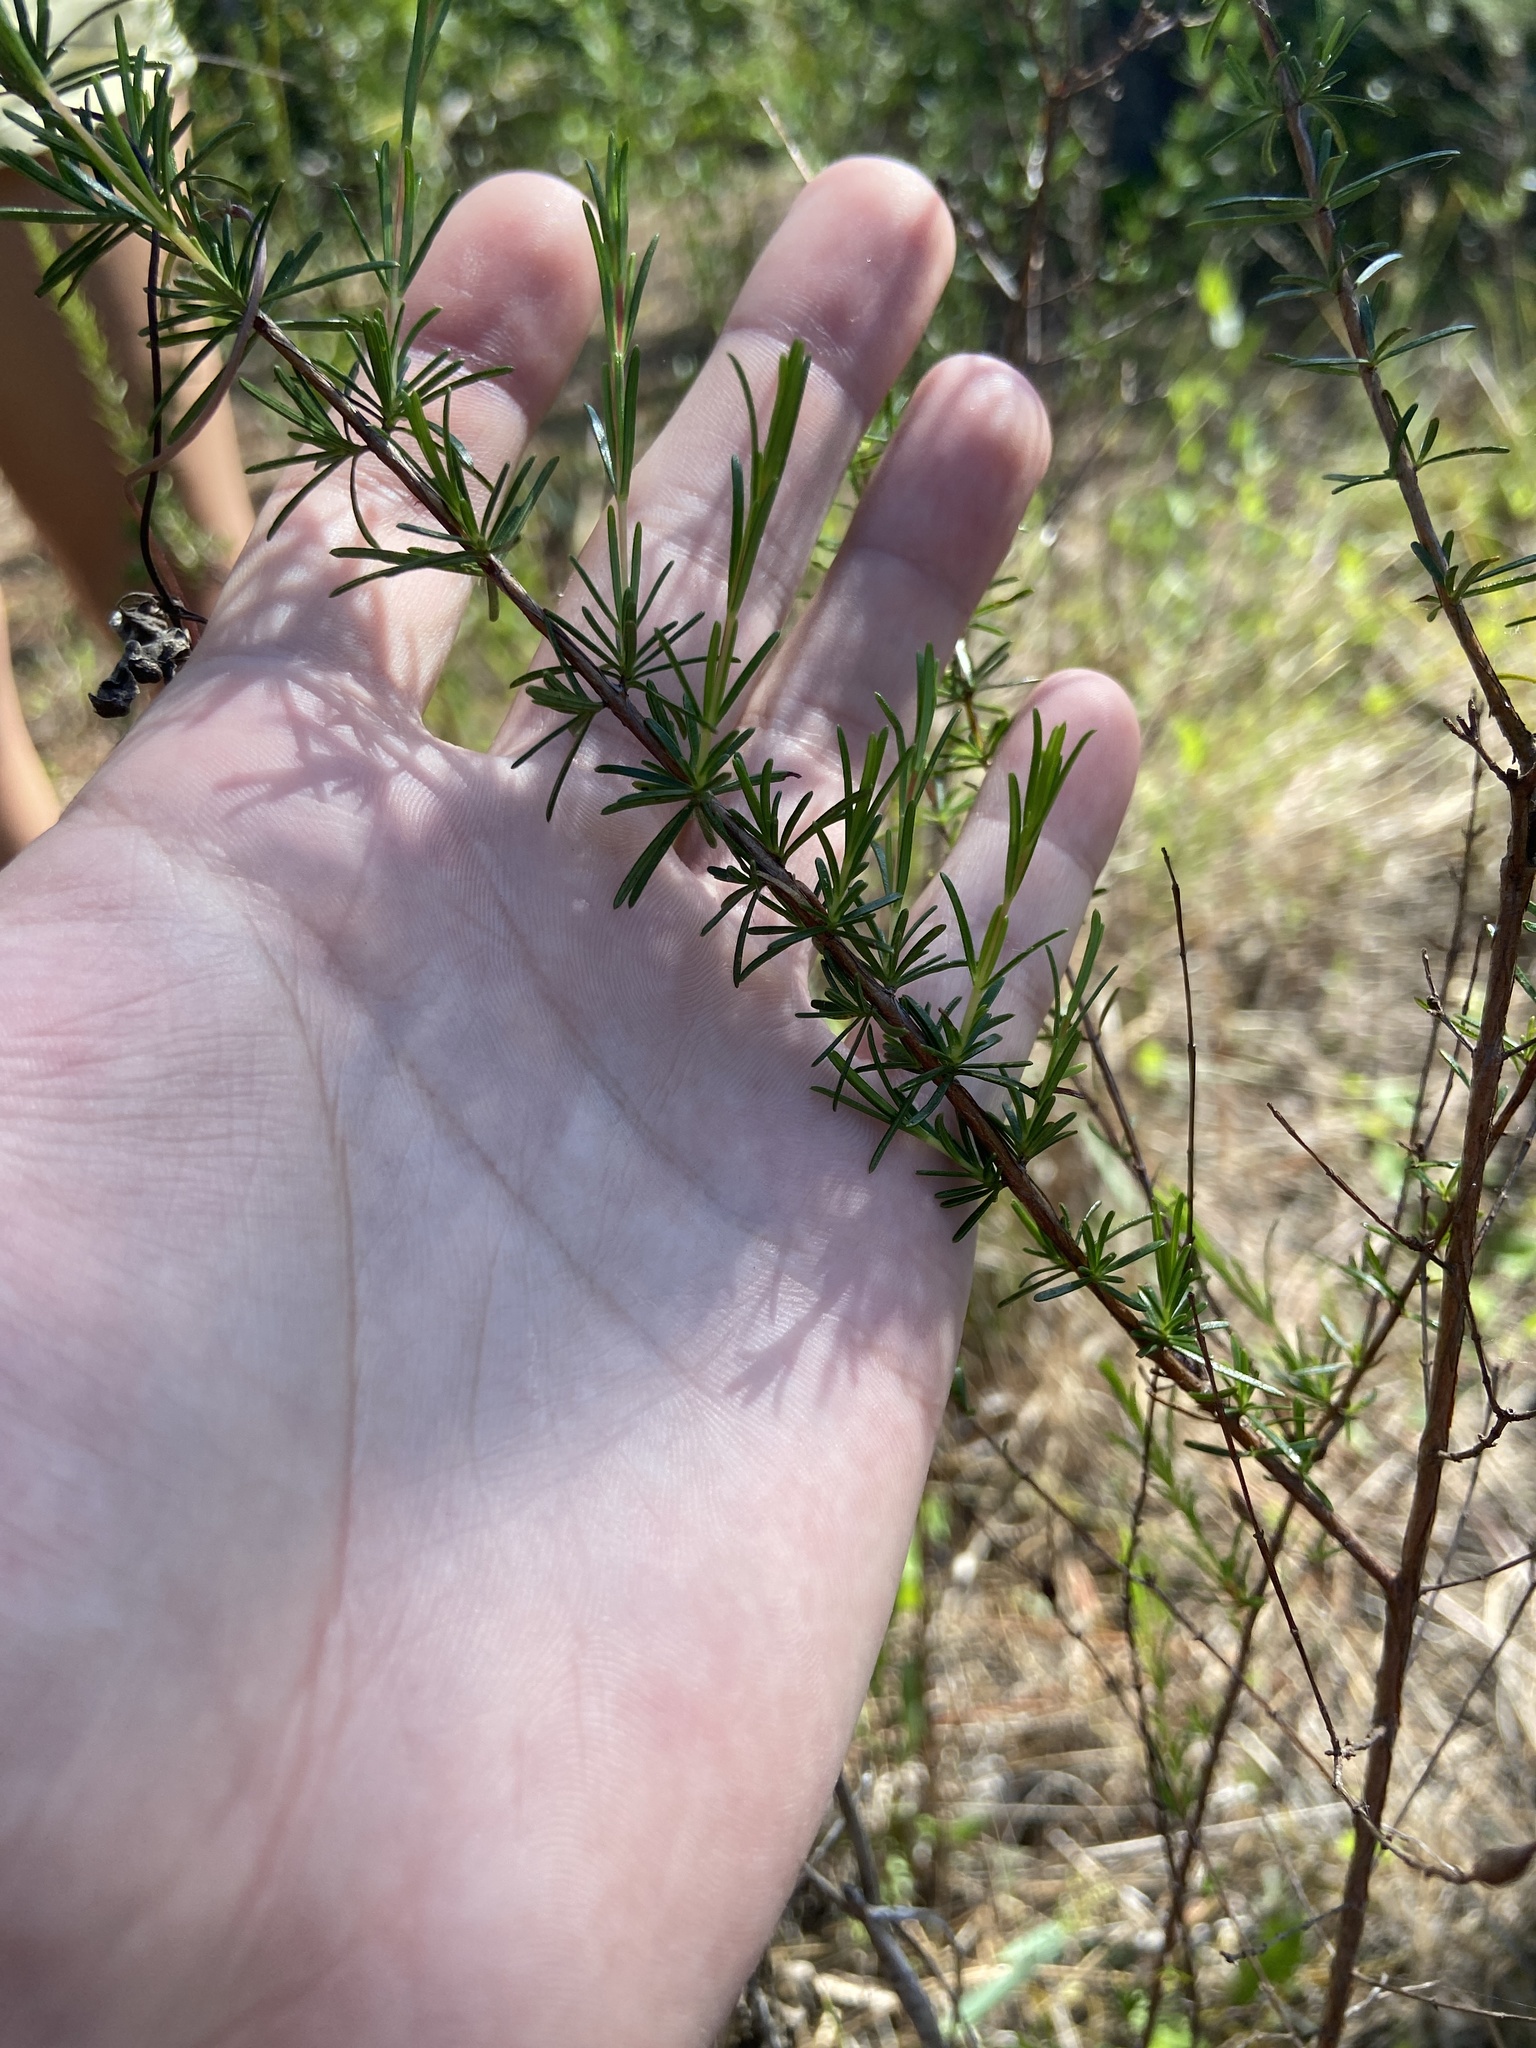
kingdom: Plantae
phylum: Tracheophyta
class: Magnoliopsida
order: Malpighiales
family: Hypericaceae
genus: Hypericum
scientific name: Hypericum fasciculatum
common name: Peelbark st. john's wort
